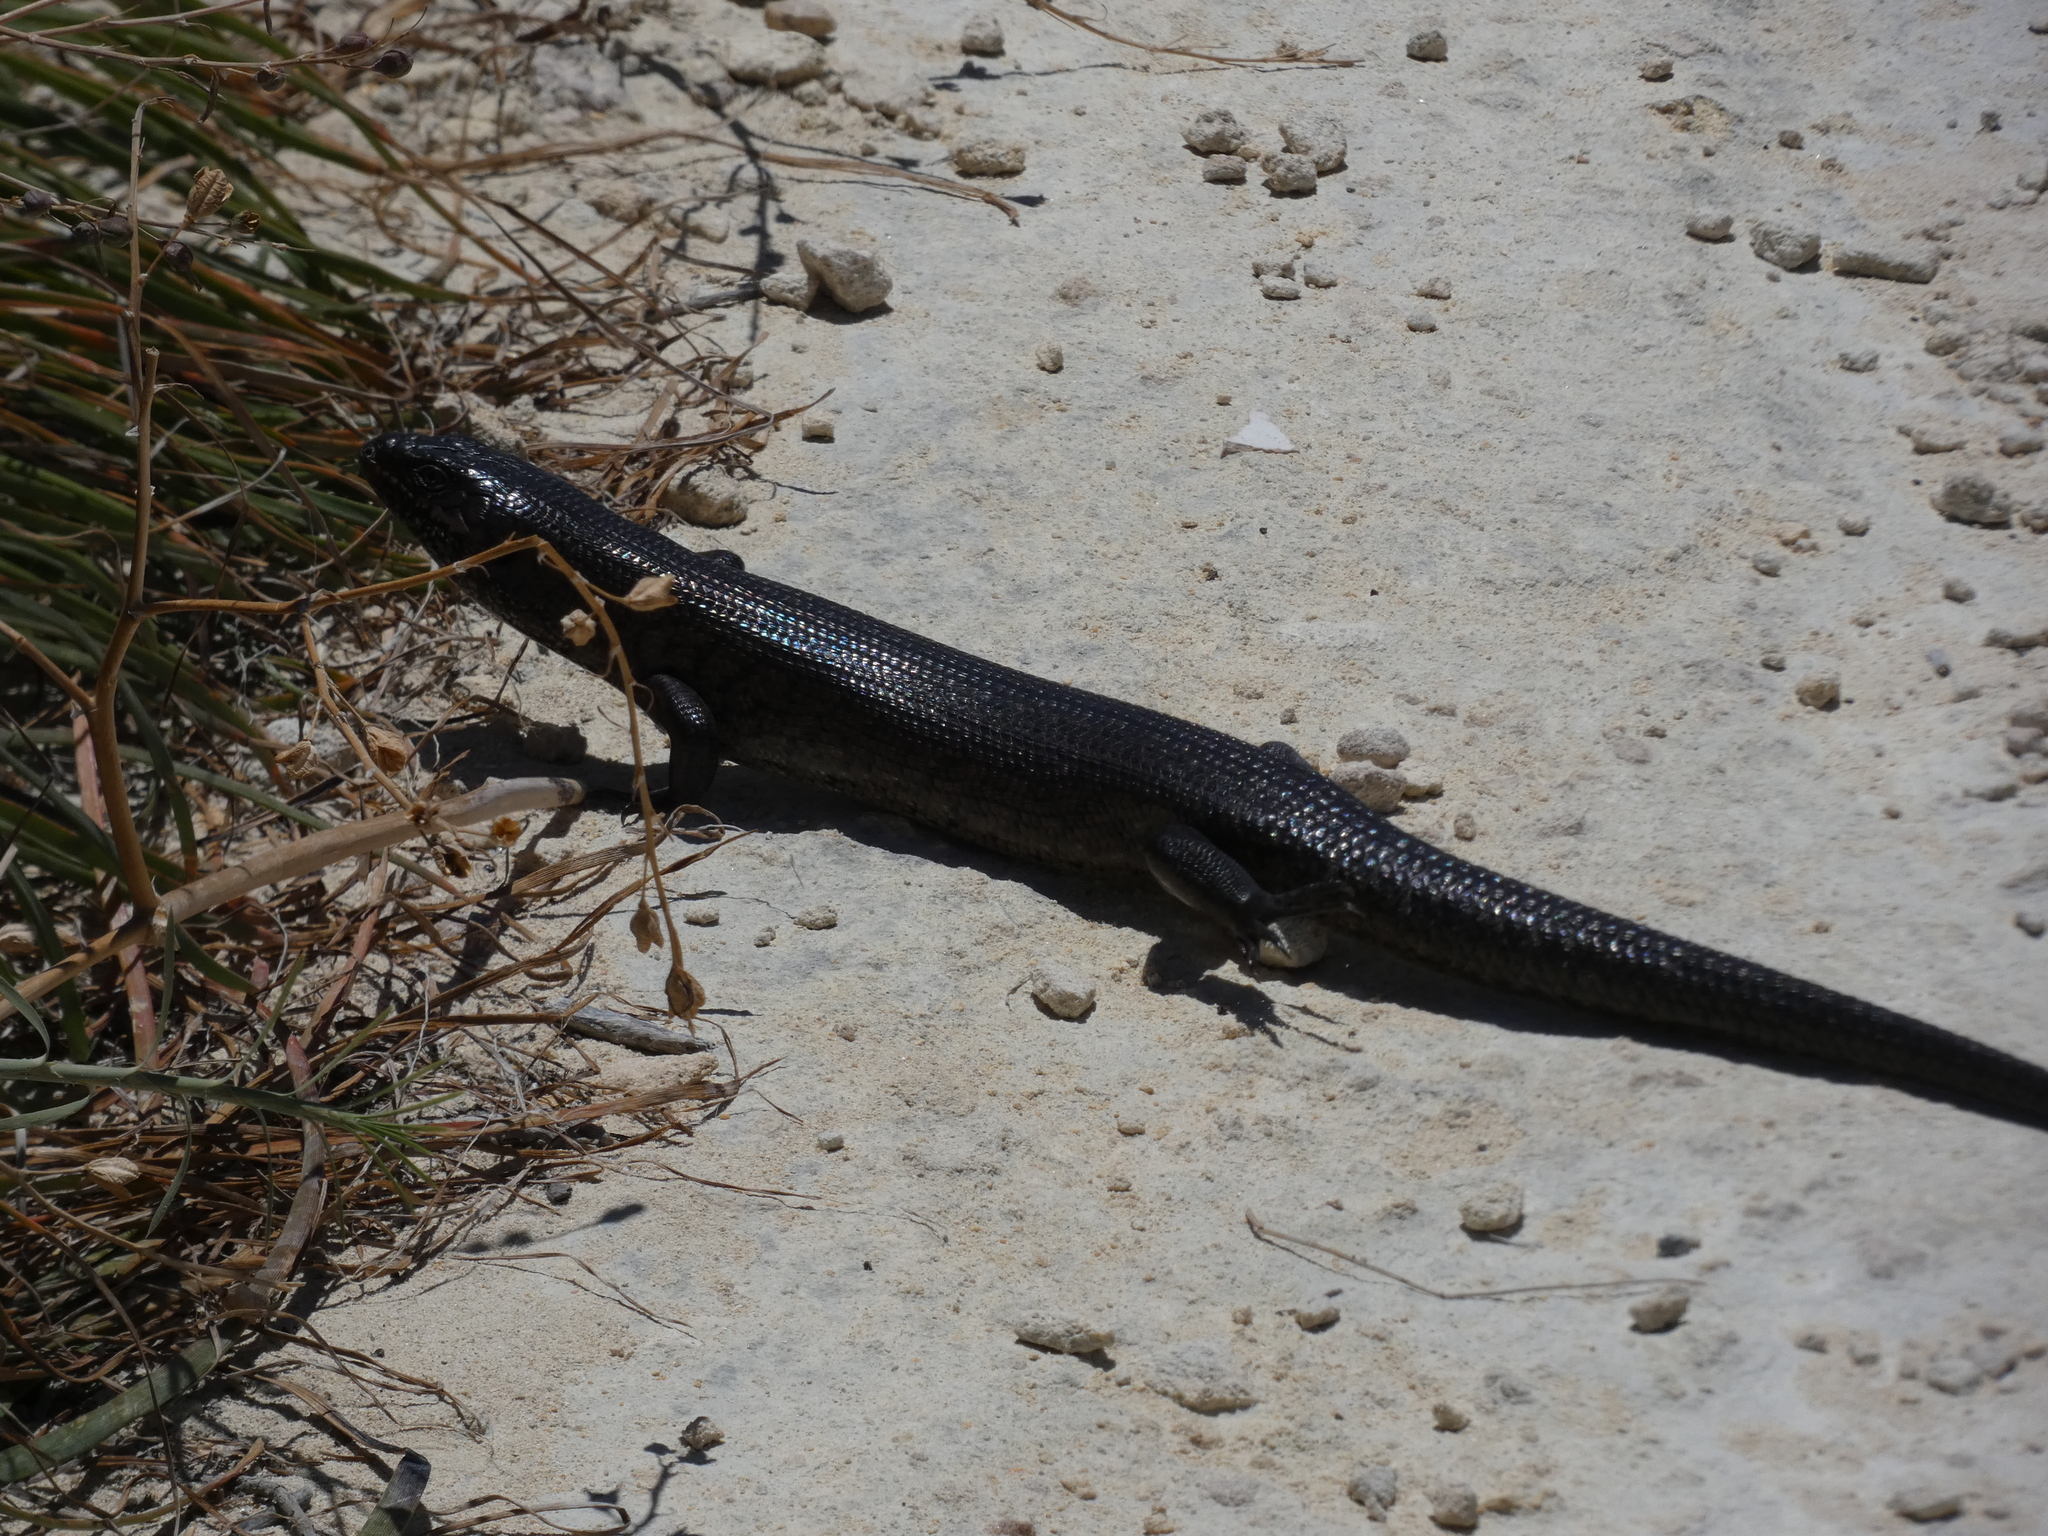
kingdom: Animalia
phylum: Chordata
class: Squamata
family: Scincidae
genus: Egernia
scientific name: Egernia kingii
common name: King's skink
